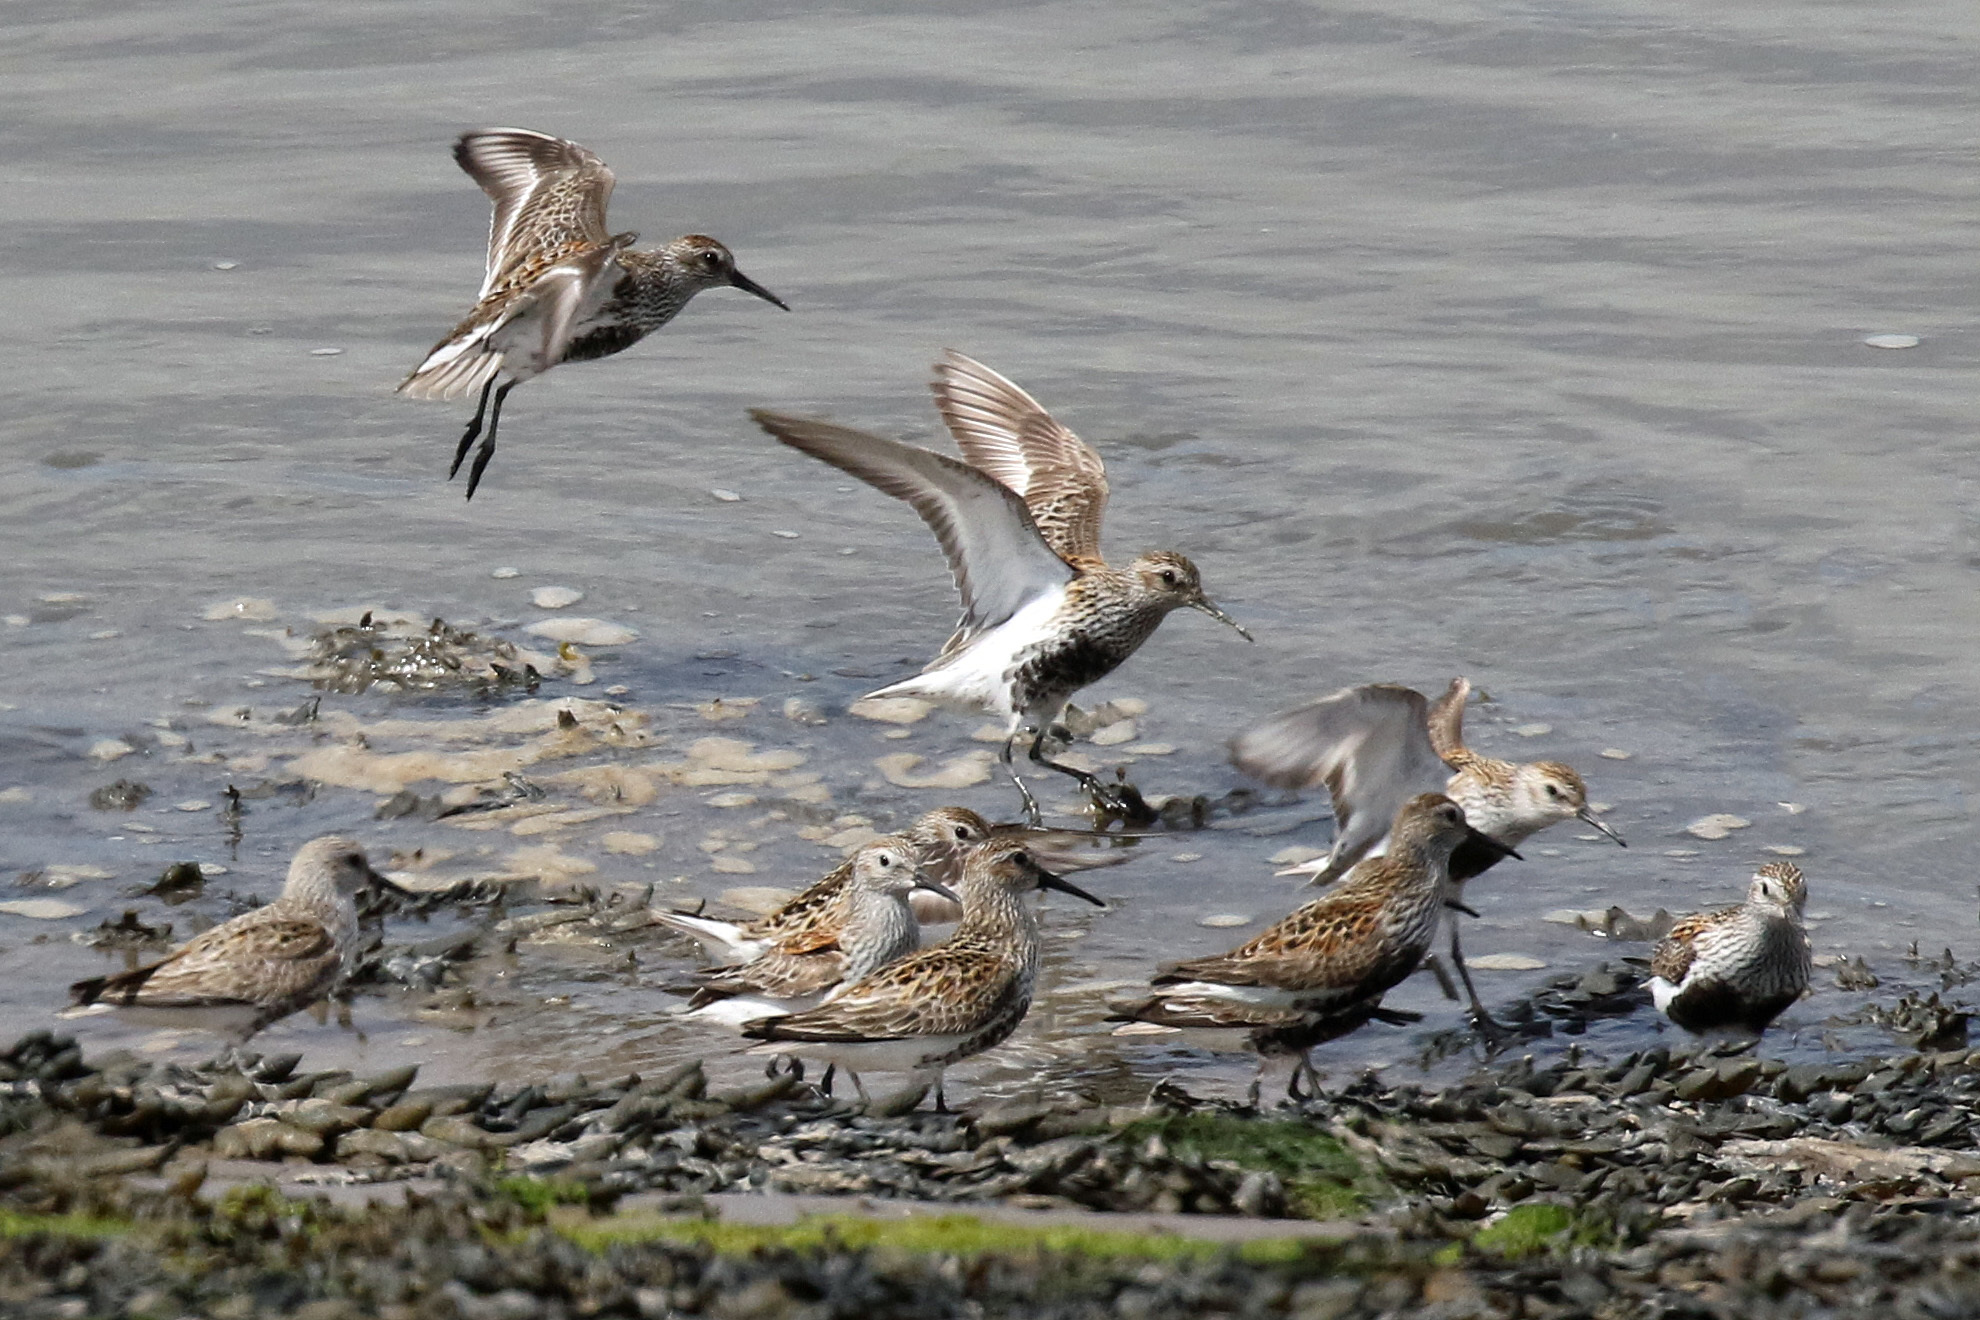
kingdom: Animalia
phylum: Chordata
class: Aves
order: Charadriiformes
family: Scolopacidae
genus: Calidris
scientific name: Calidris alpina
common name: Dunlin
